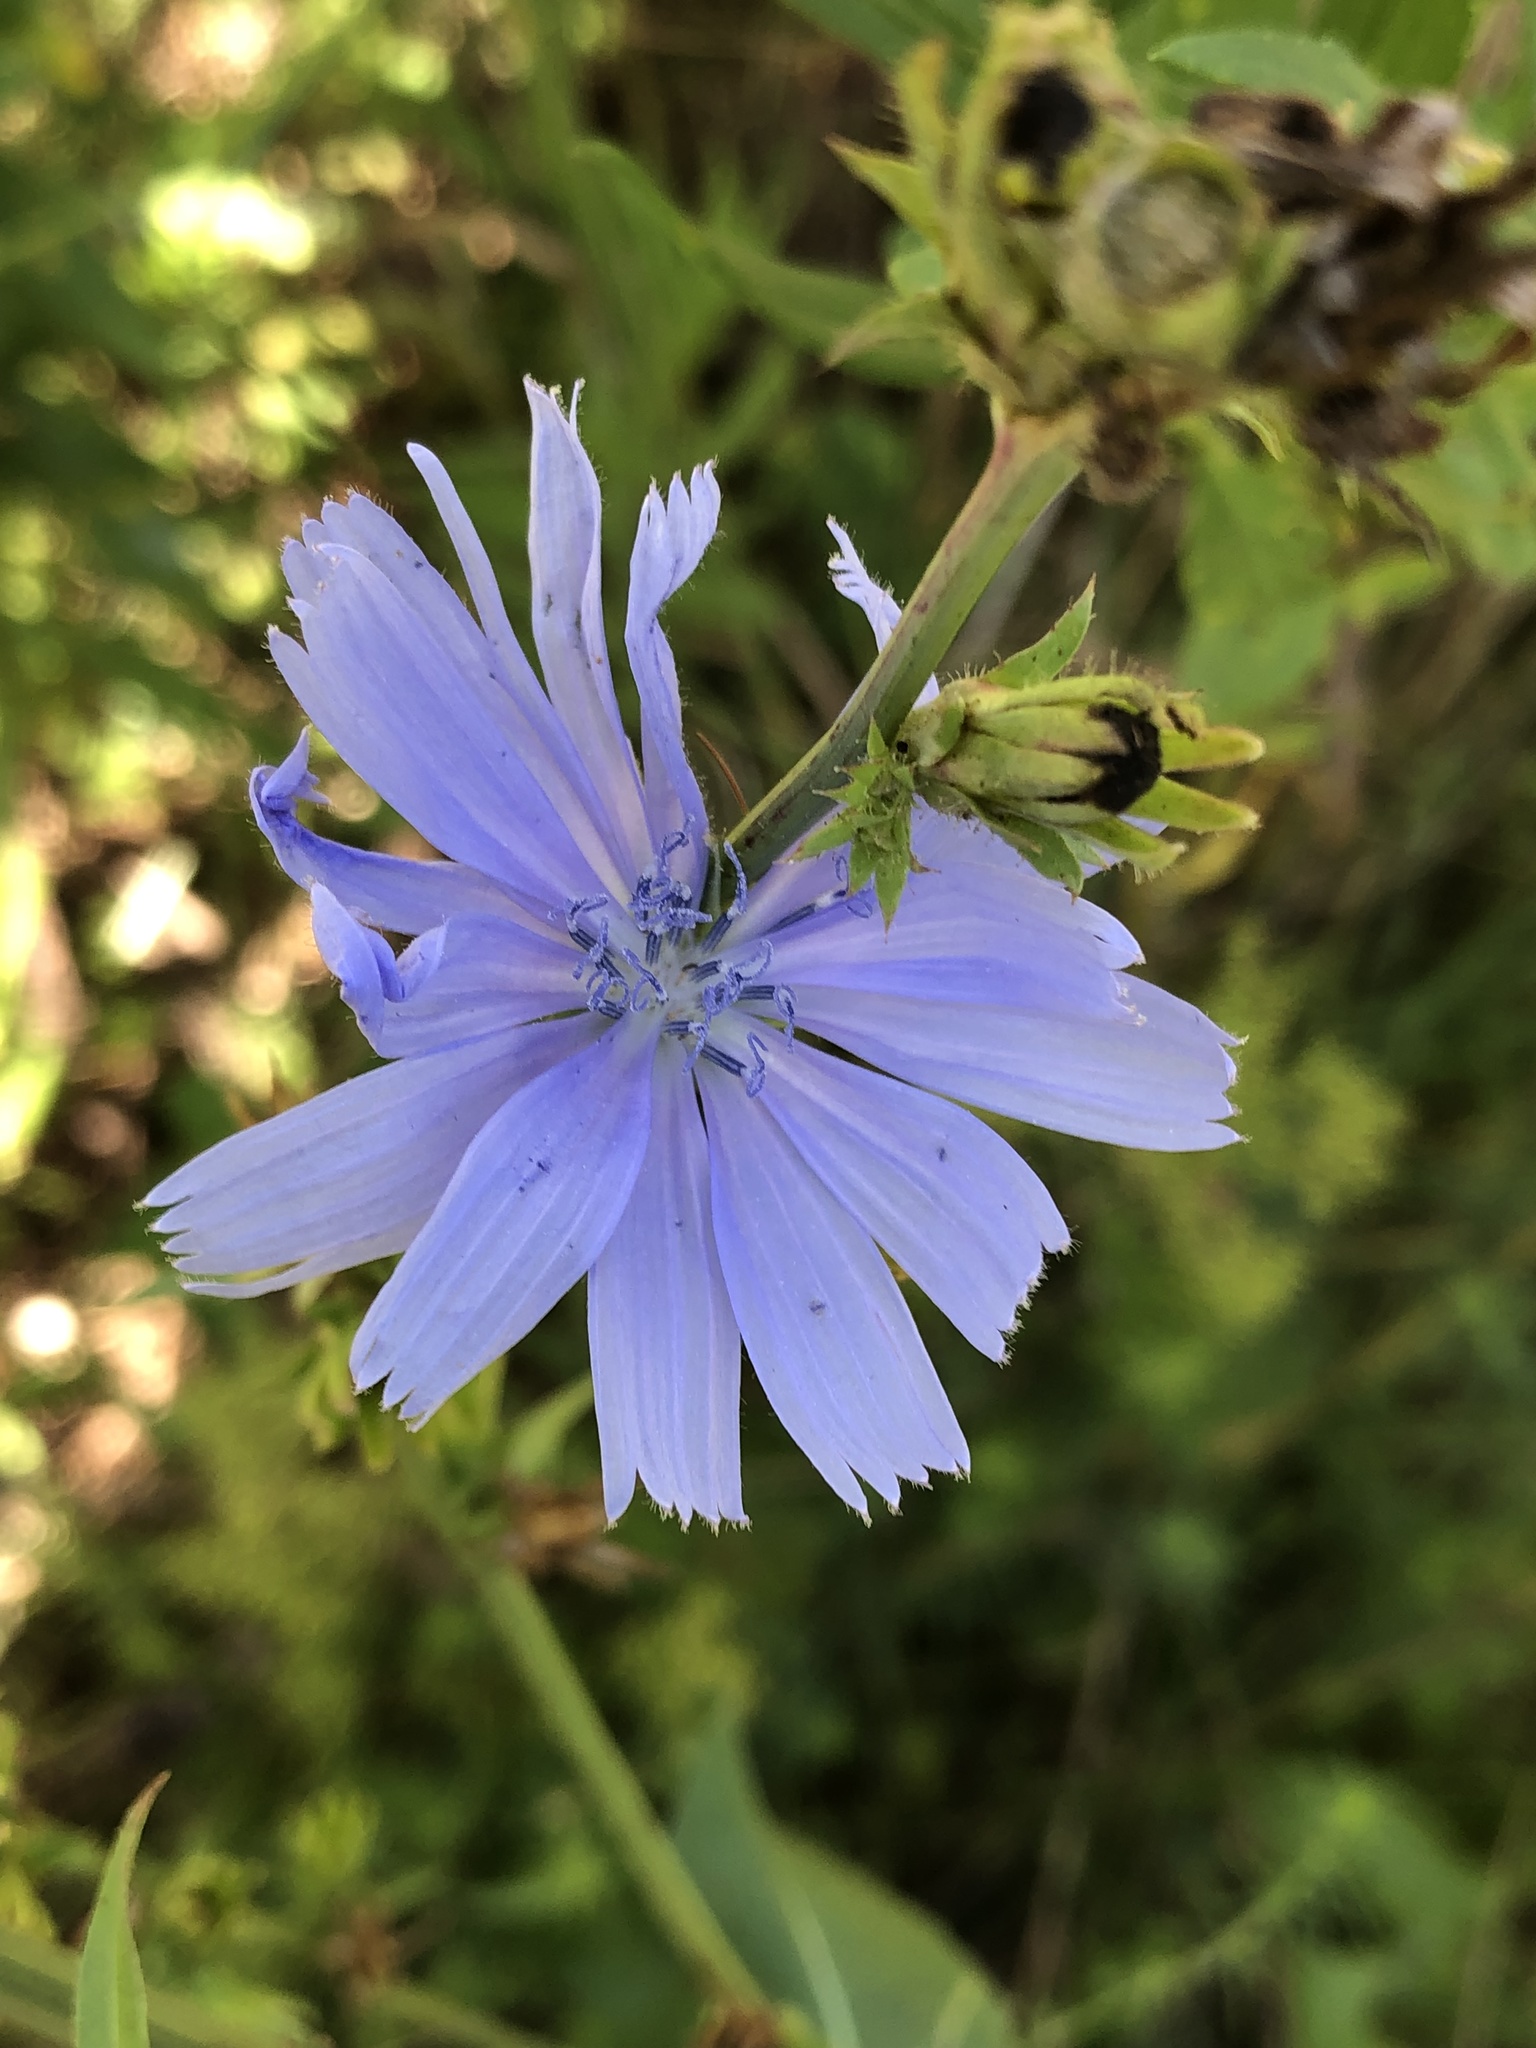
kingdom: Plantae
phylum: Tracheophyta
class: Magnoliopsida
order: Asterales
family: Asteraceae
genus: Cichorium
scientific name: Cichorium intybus
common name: Chicory
